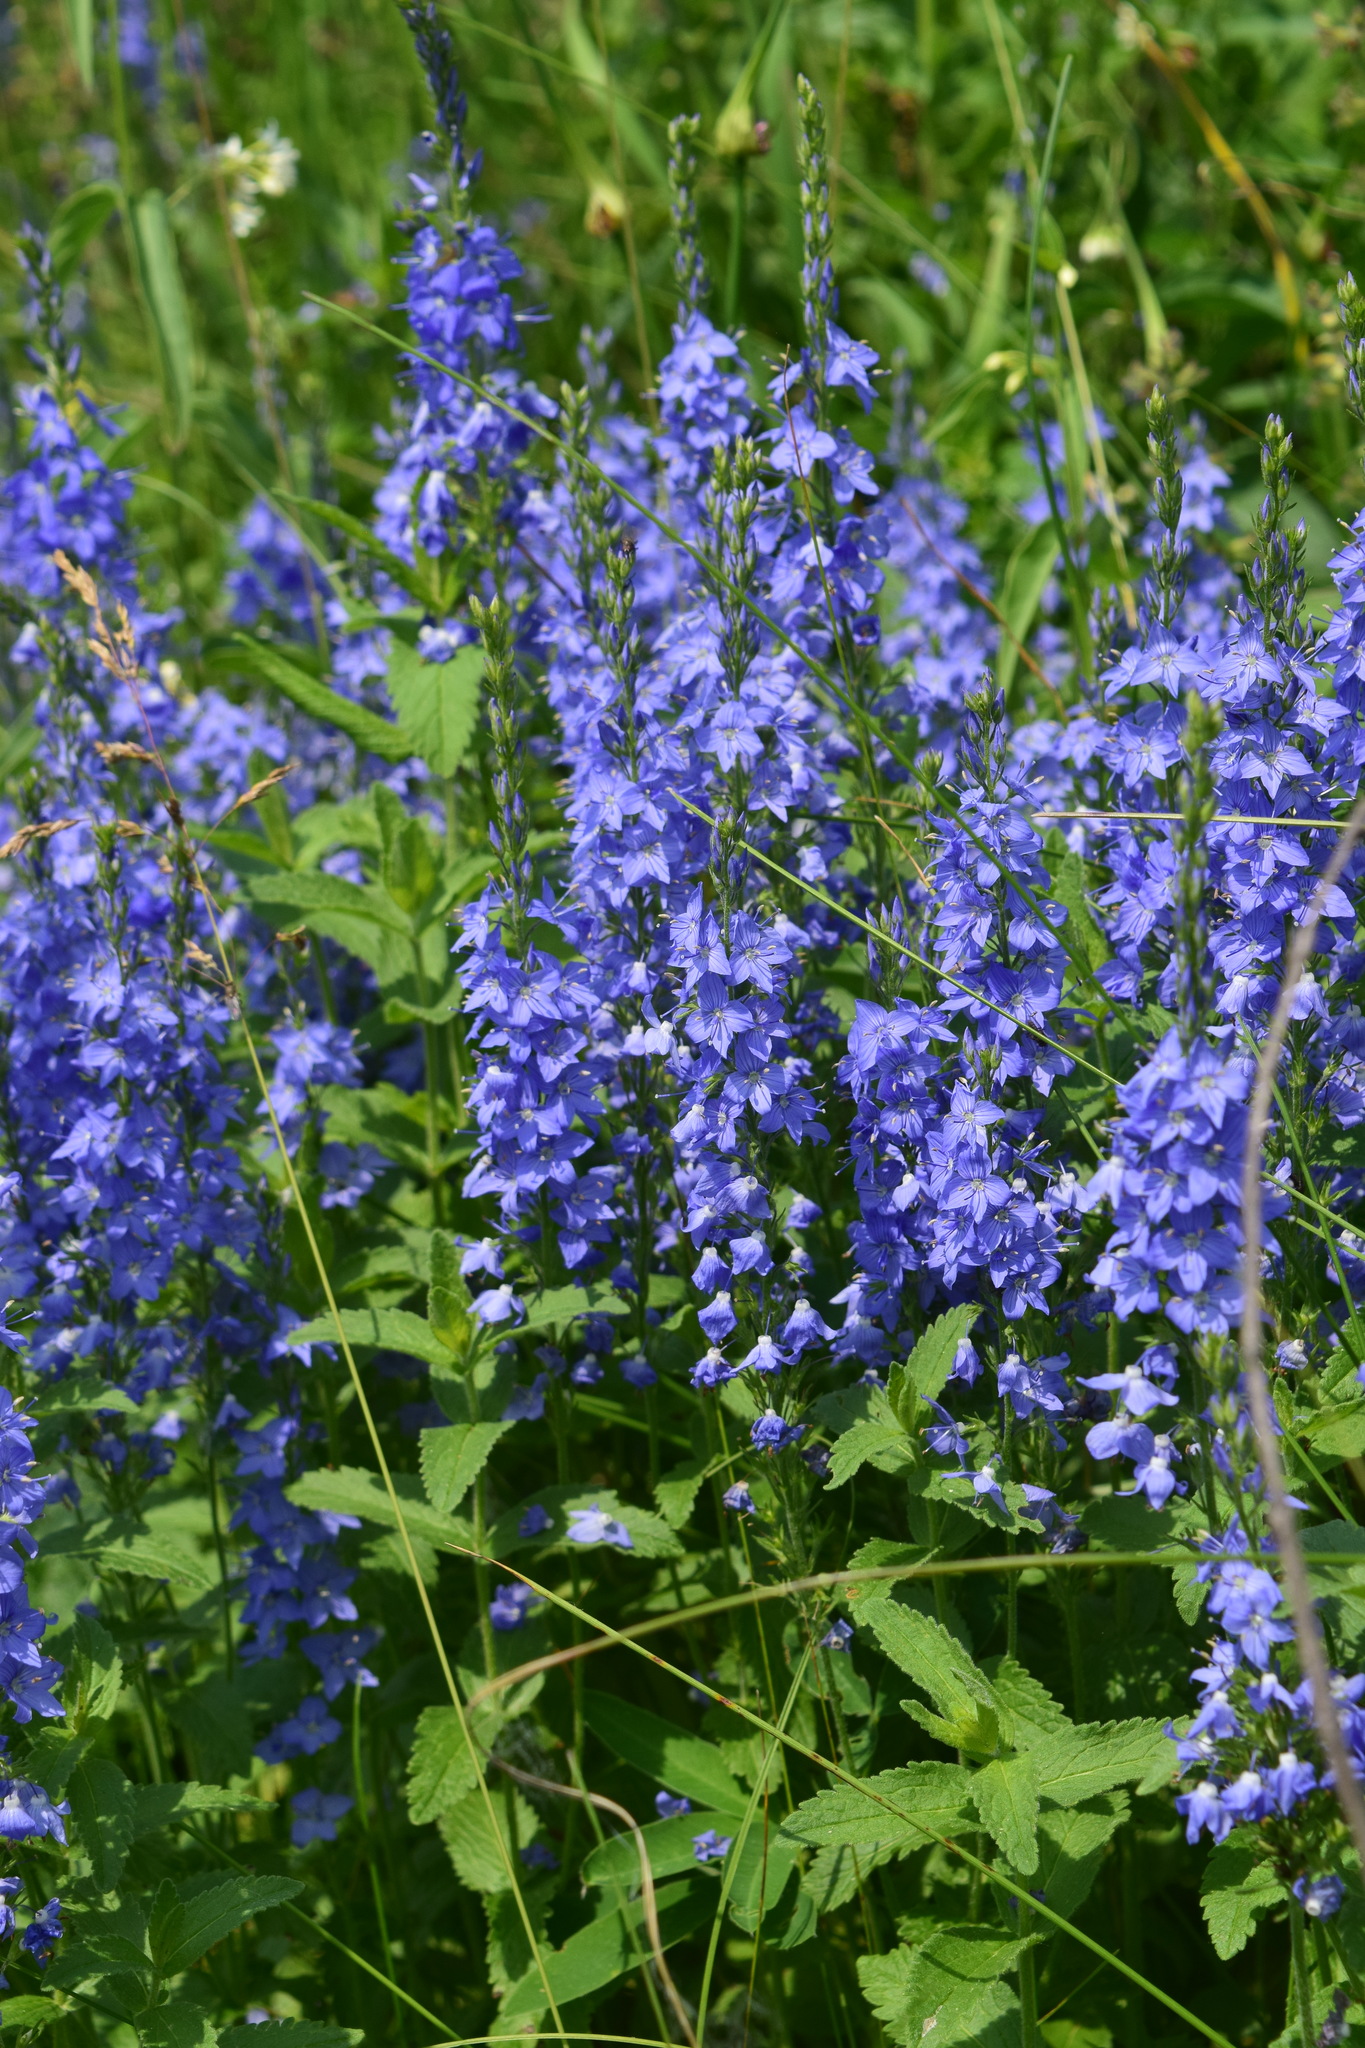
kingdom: Plantae
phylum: Tracheophyta
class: Magnoliopsida
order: Lamiales
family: Plantaginaceae
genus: Veronica
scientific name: Veronica teucrium
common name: Large speedwell
